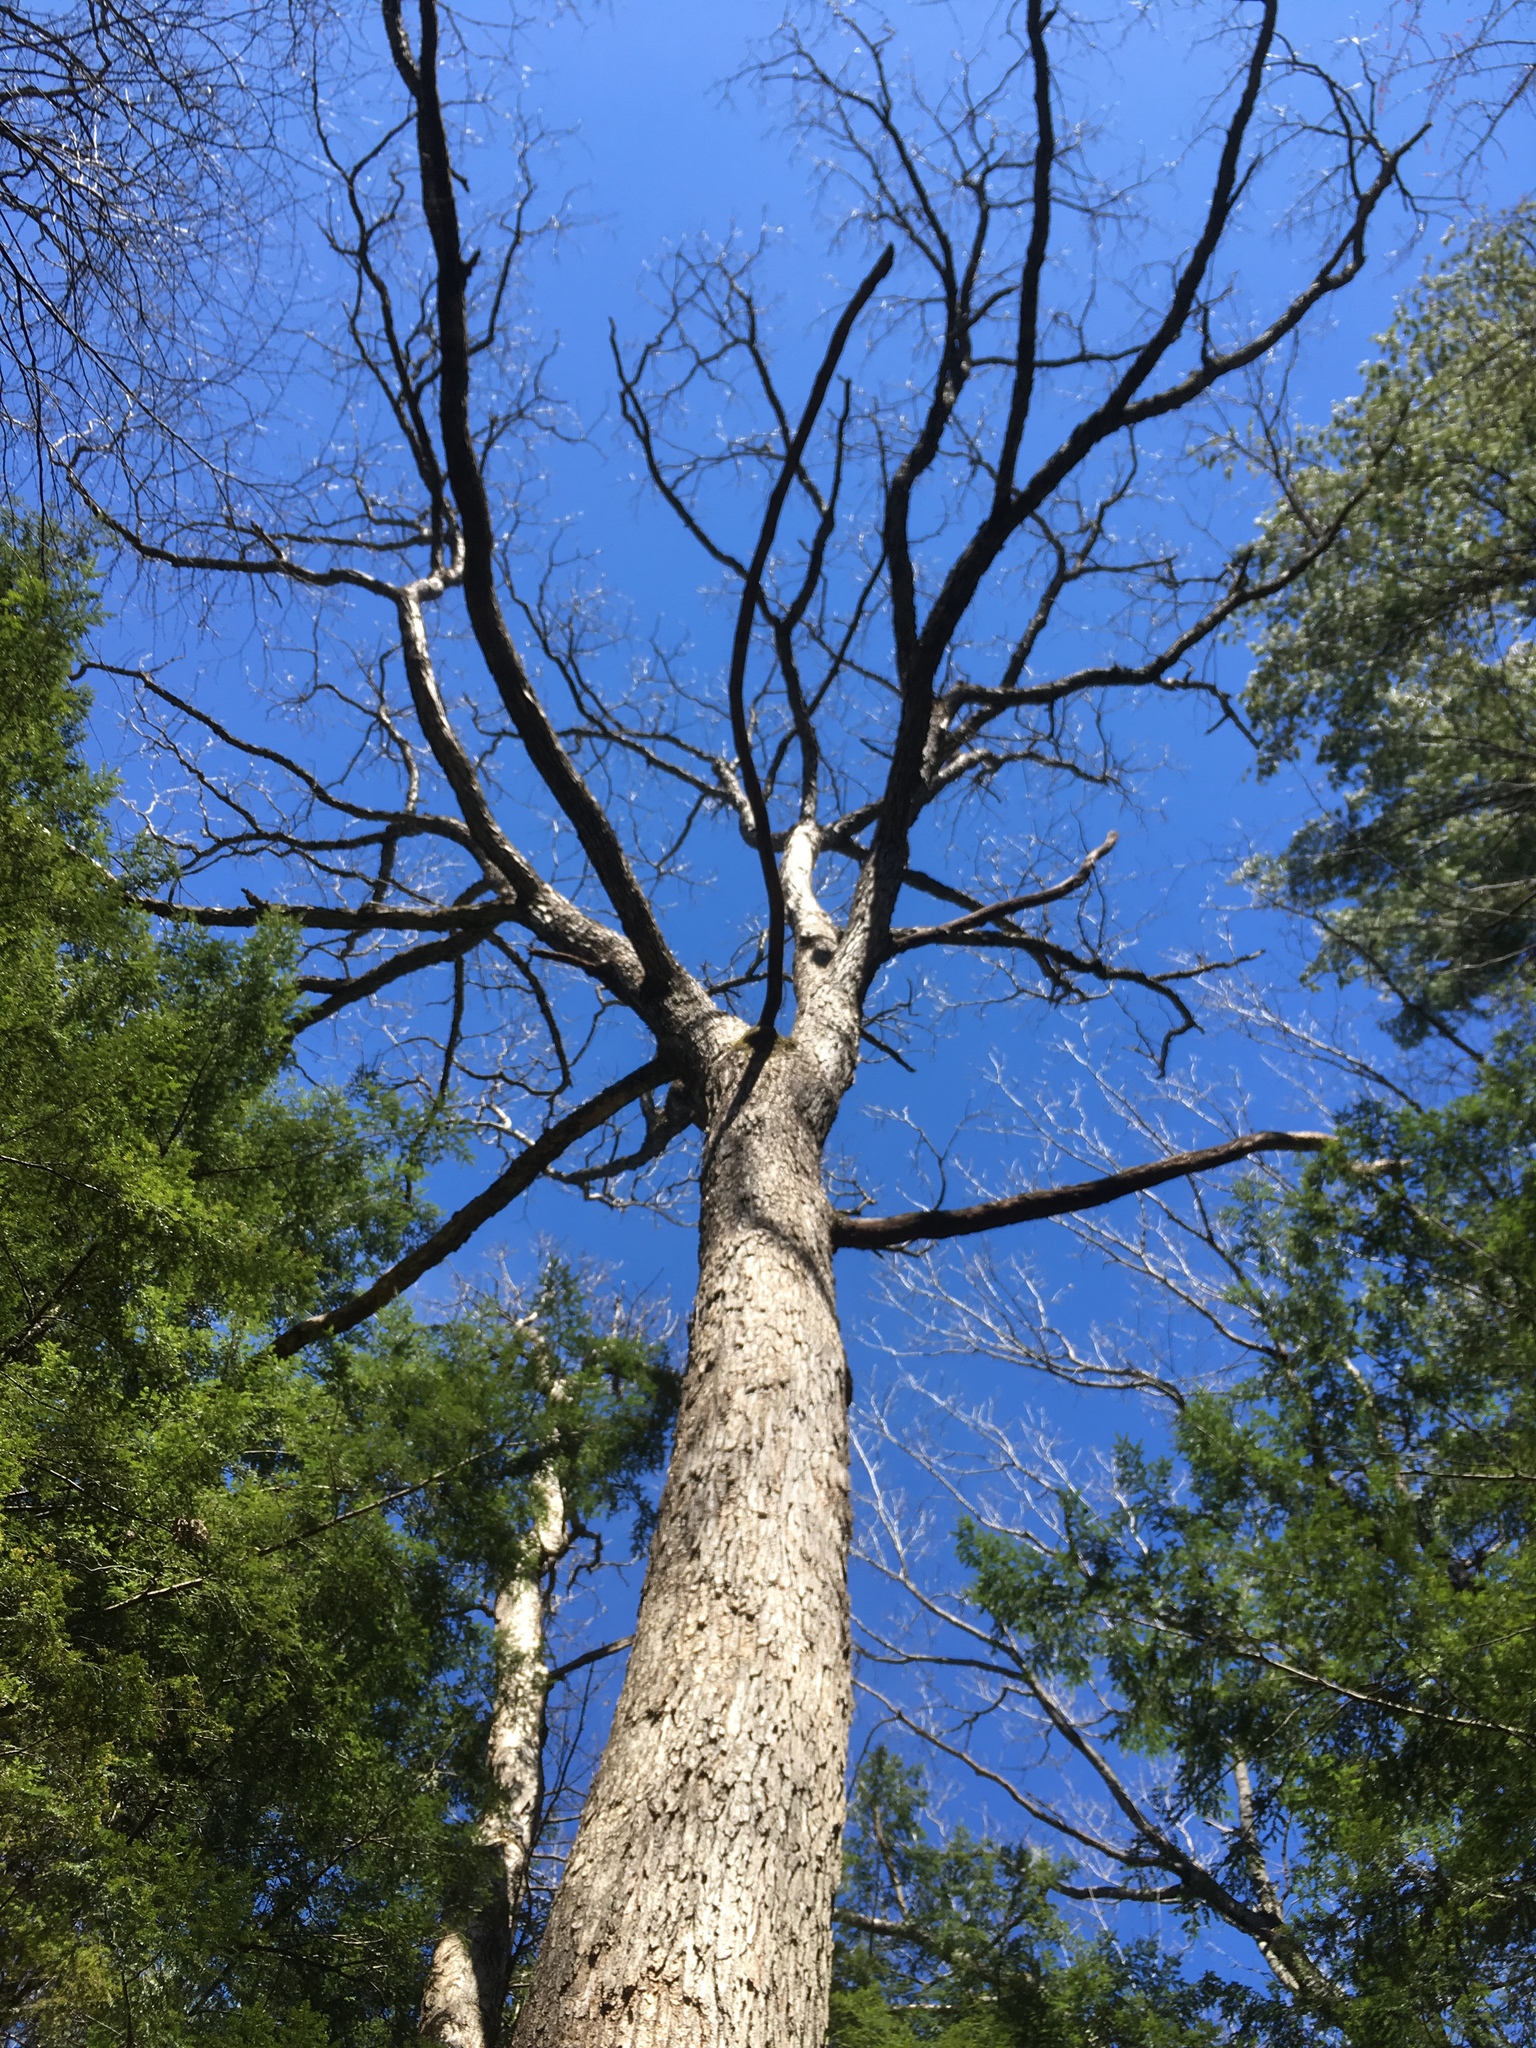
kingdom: Plantae
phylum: Tracheophyta
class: Magnoliopsida
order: Fagales
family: Fagaceae
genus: Quercus
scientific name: Quercus alba
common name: White oak
